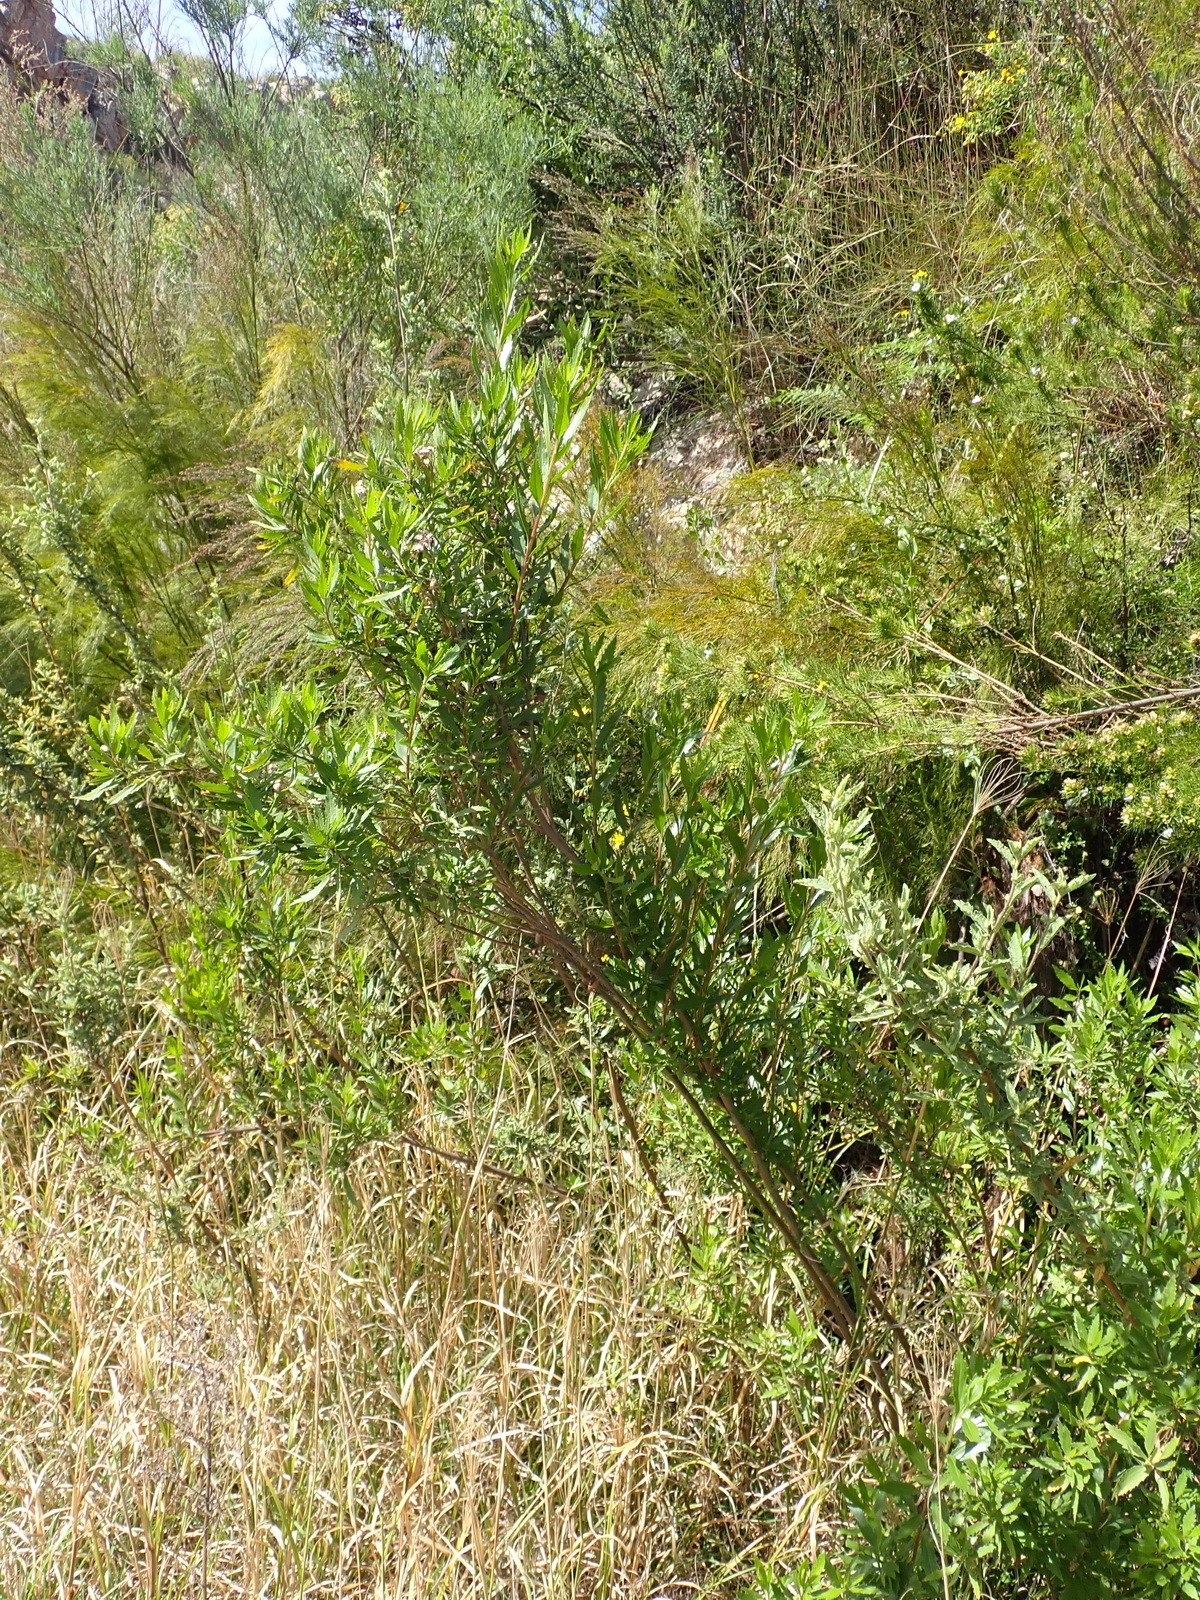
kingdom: Plantae
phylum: Tracheophyta
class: Magnoliopsida
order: Asterales
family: Asteraceae
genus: Nidorella
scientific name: Nidorella ivifolia
